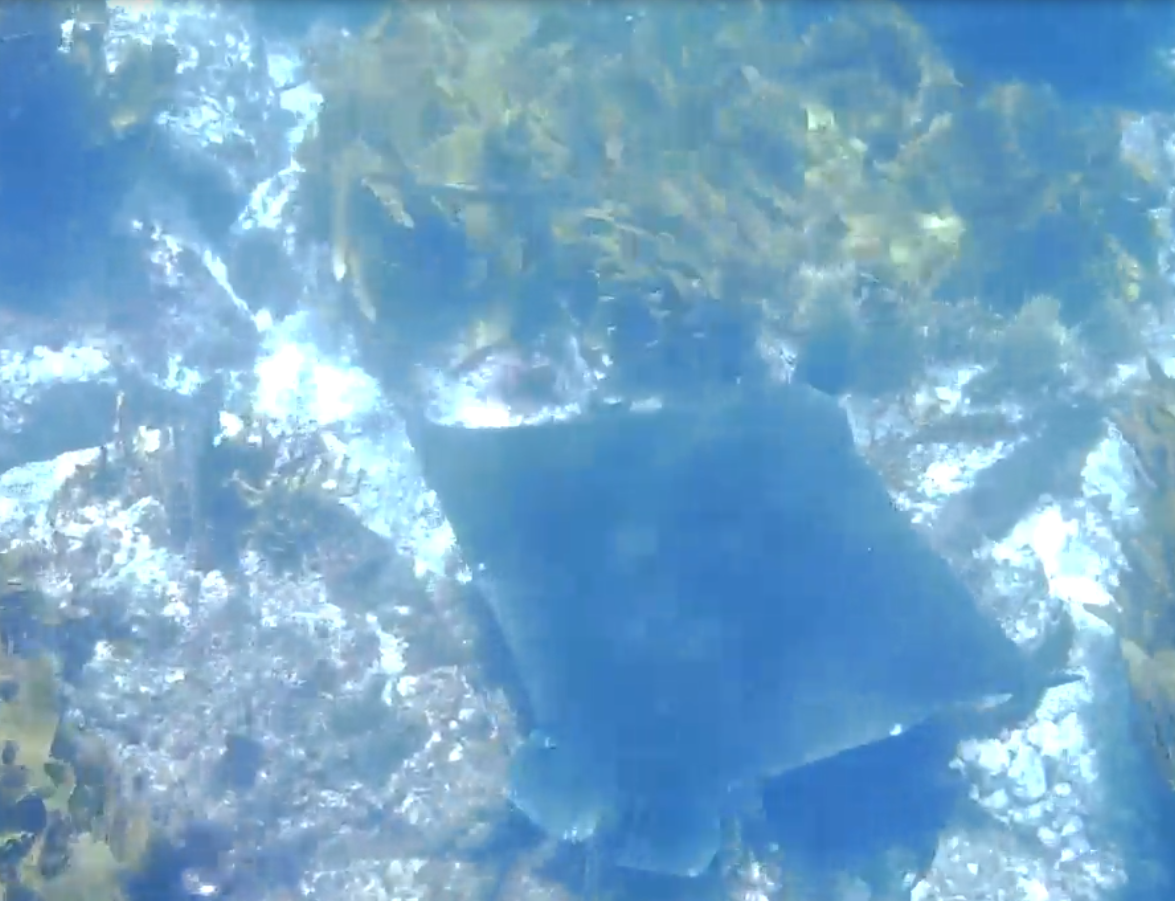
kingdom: Animalia
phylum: Chordata
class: Elasmobranchii
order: Myliobatiformes
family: Myliobatidae
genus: Myliobatis
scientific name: Myliobatis tenuicaudatus
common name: Eagle ray
